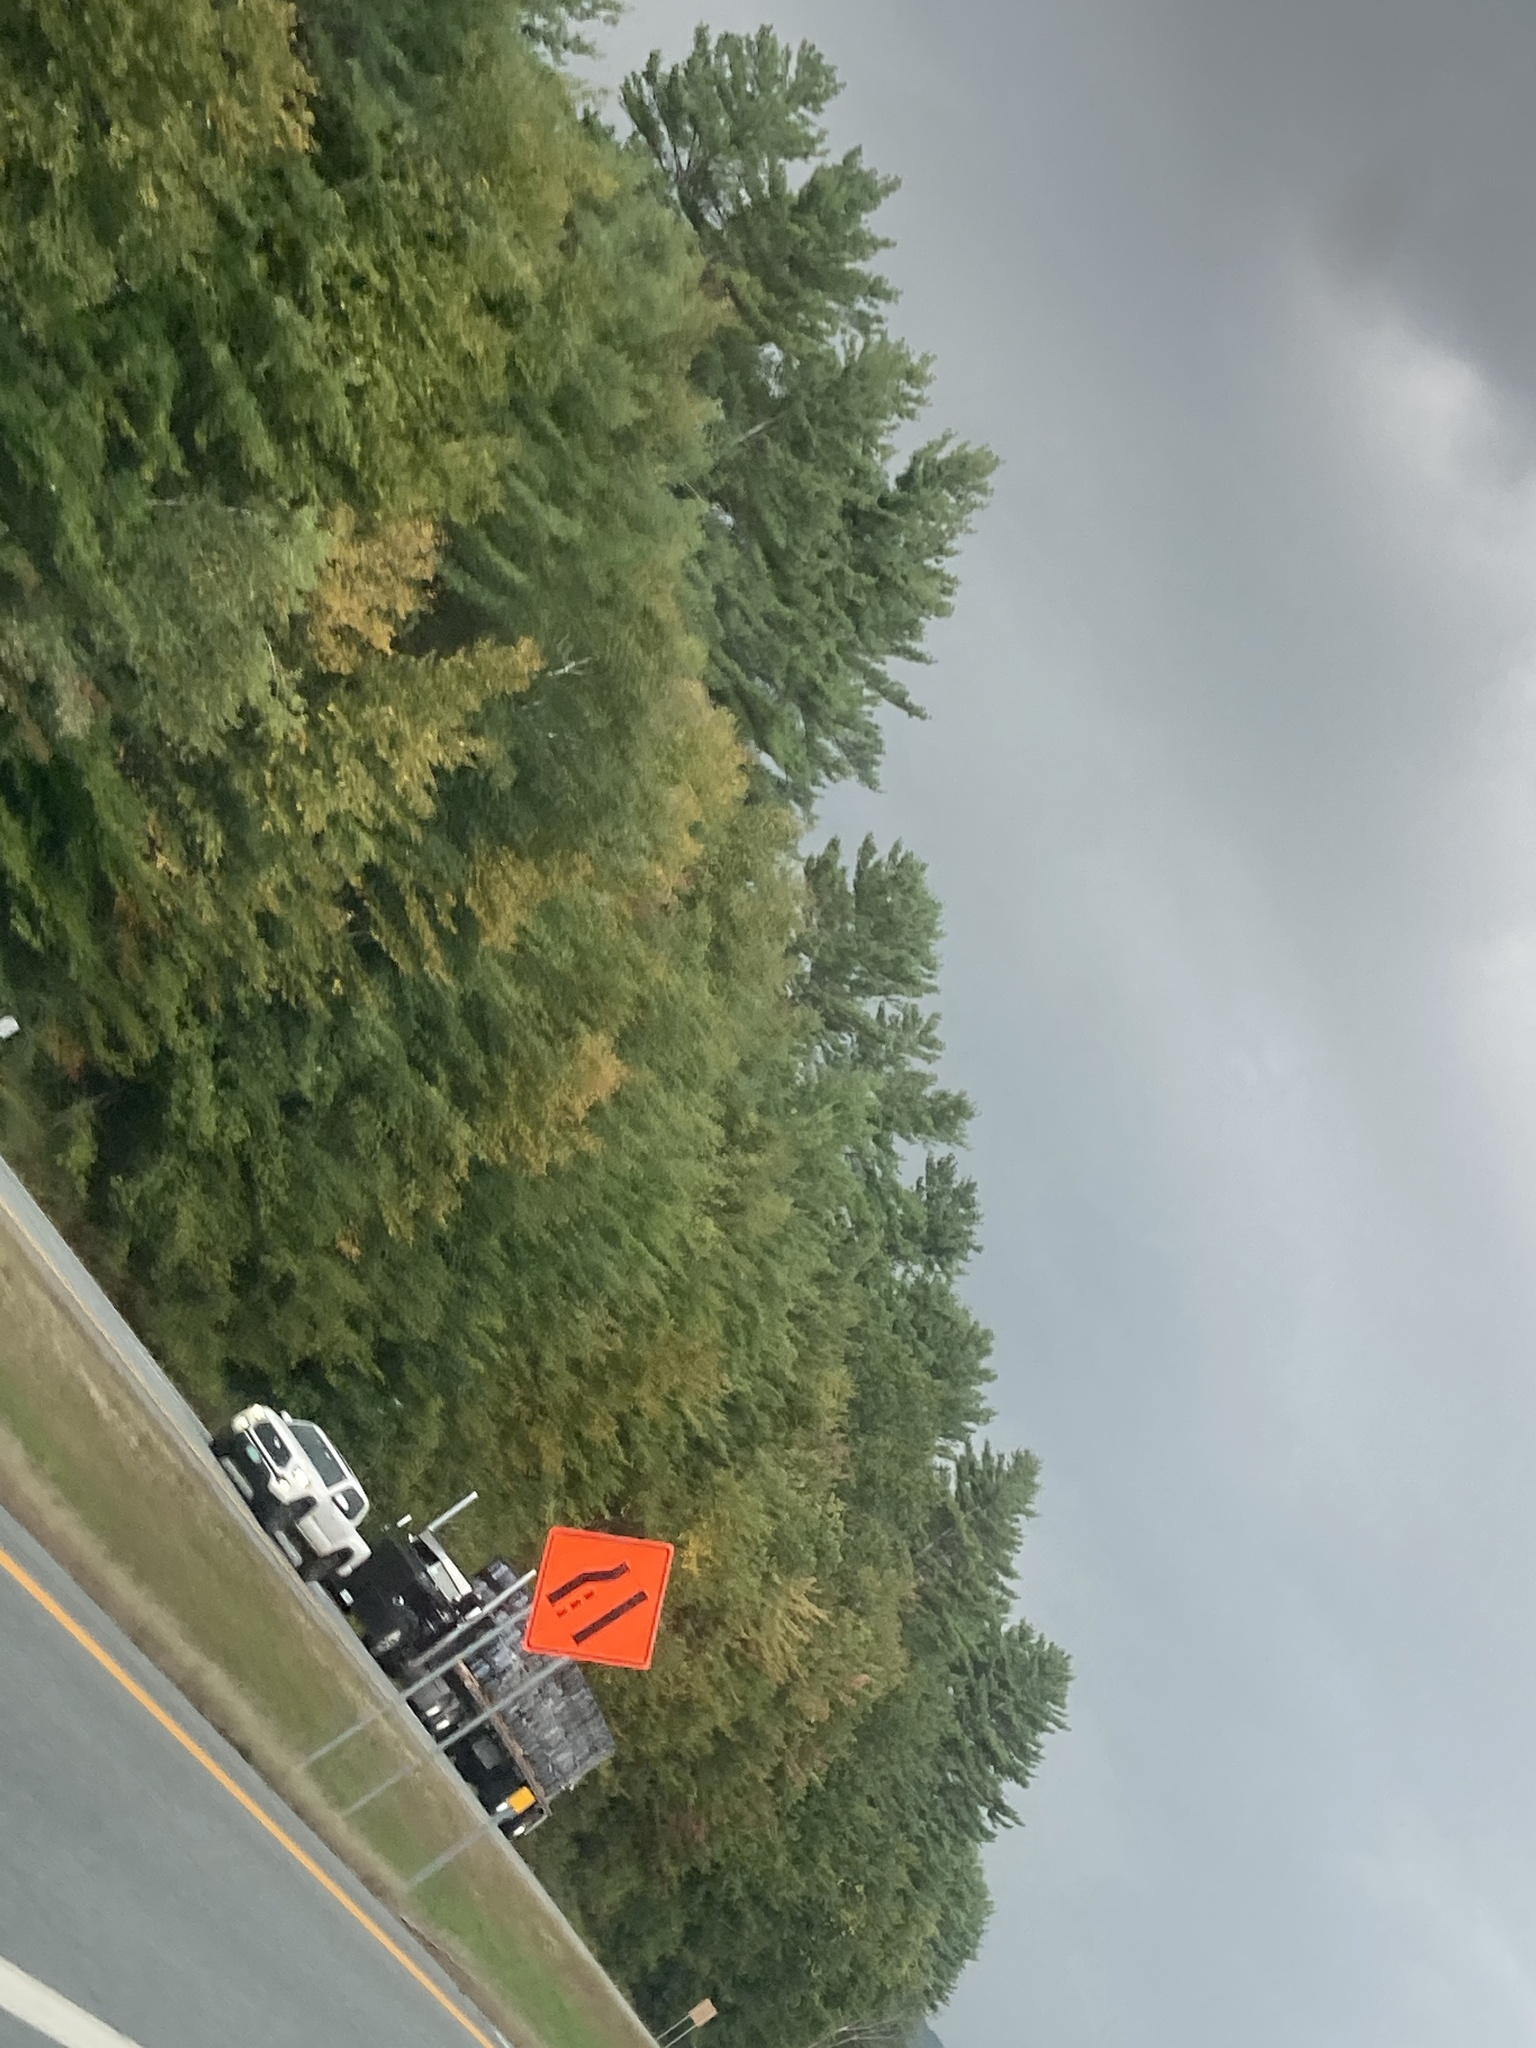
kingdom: Plantae
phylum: Tracheophyta
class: Pinopsida
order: Pinales
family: Pinaceae
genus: Pinus
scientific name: Pinus strobus
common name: Weymouth pine
